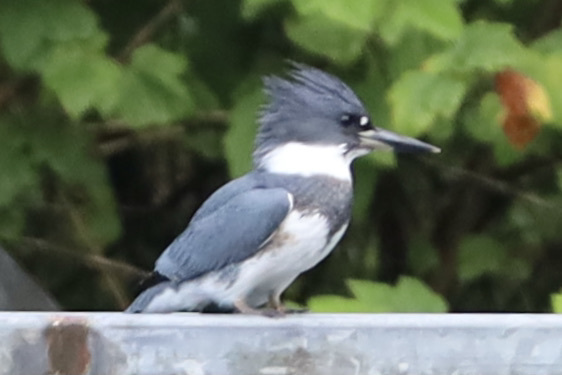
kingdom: Animalia
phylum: Chordata
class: Aves
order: Coraciiformes
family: Alcedinidae
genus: Megaceryle
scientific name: Megaceryle alcyon
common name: Belted kingfisher
